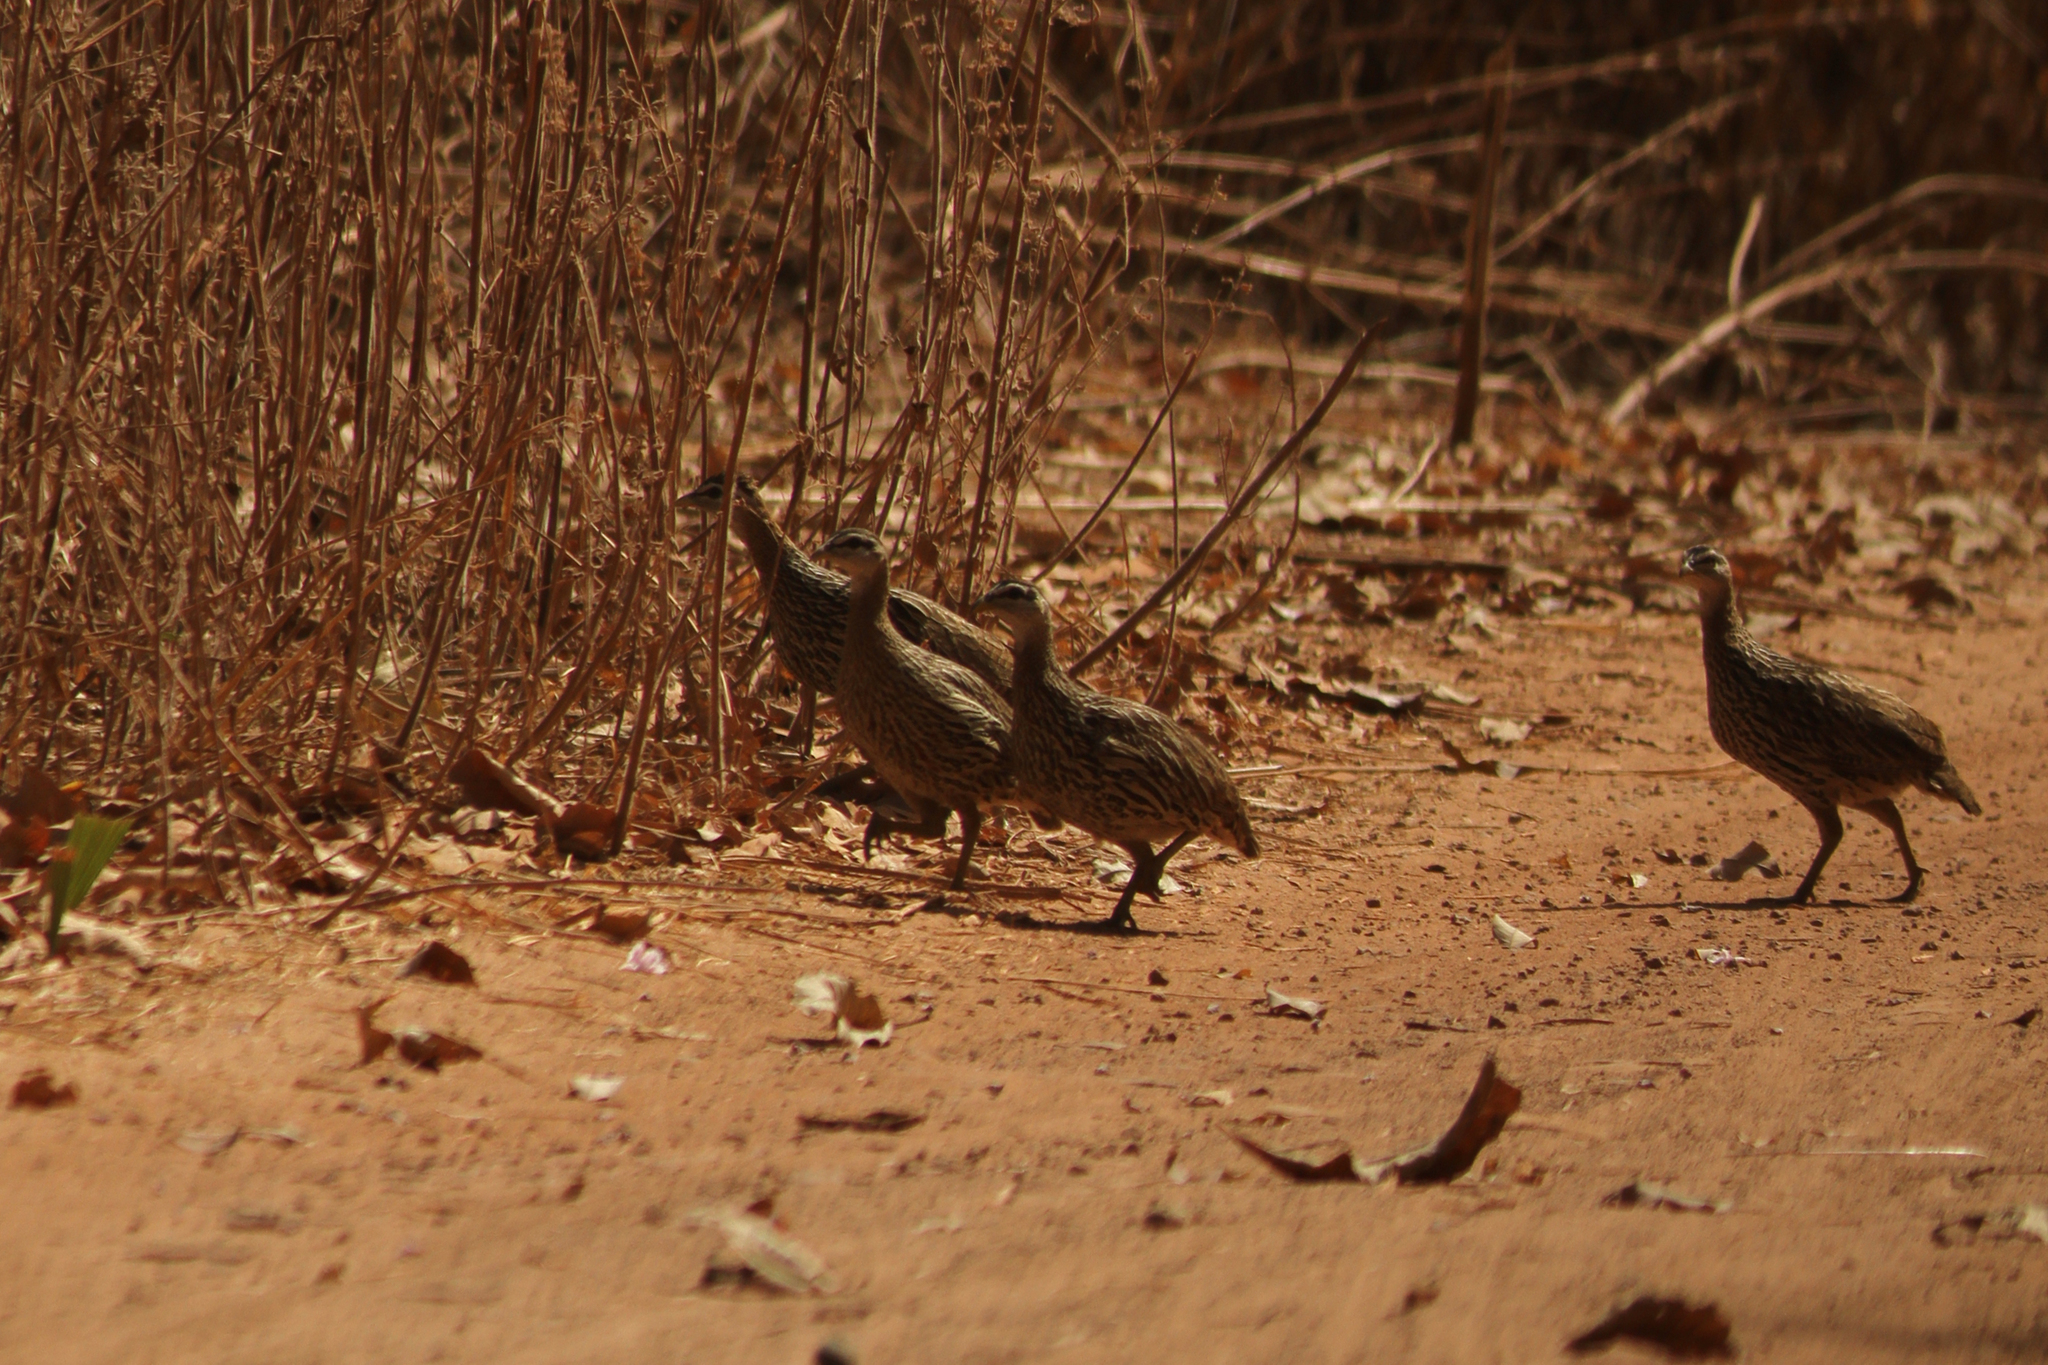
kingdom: Animalia
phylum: Chordata
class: Aves
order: Galliformes
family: Phasianidae
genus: Pternistis
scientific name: Pternistis bicalcaratus
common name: Double-spurred francolin
